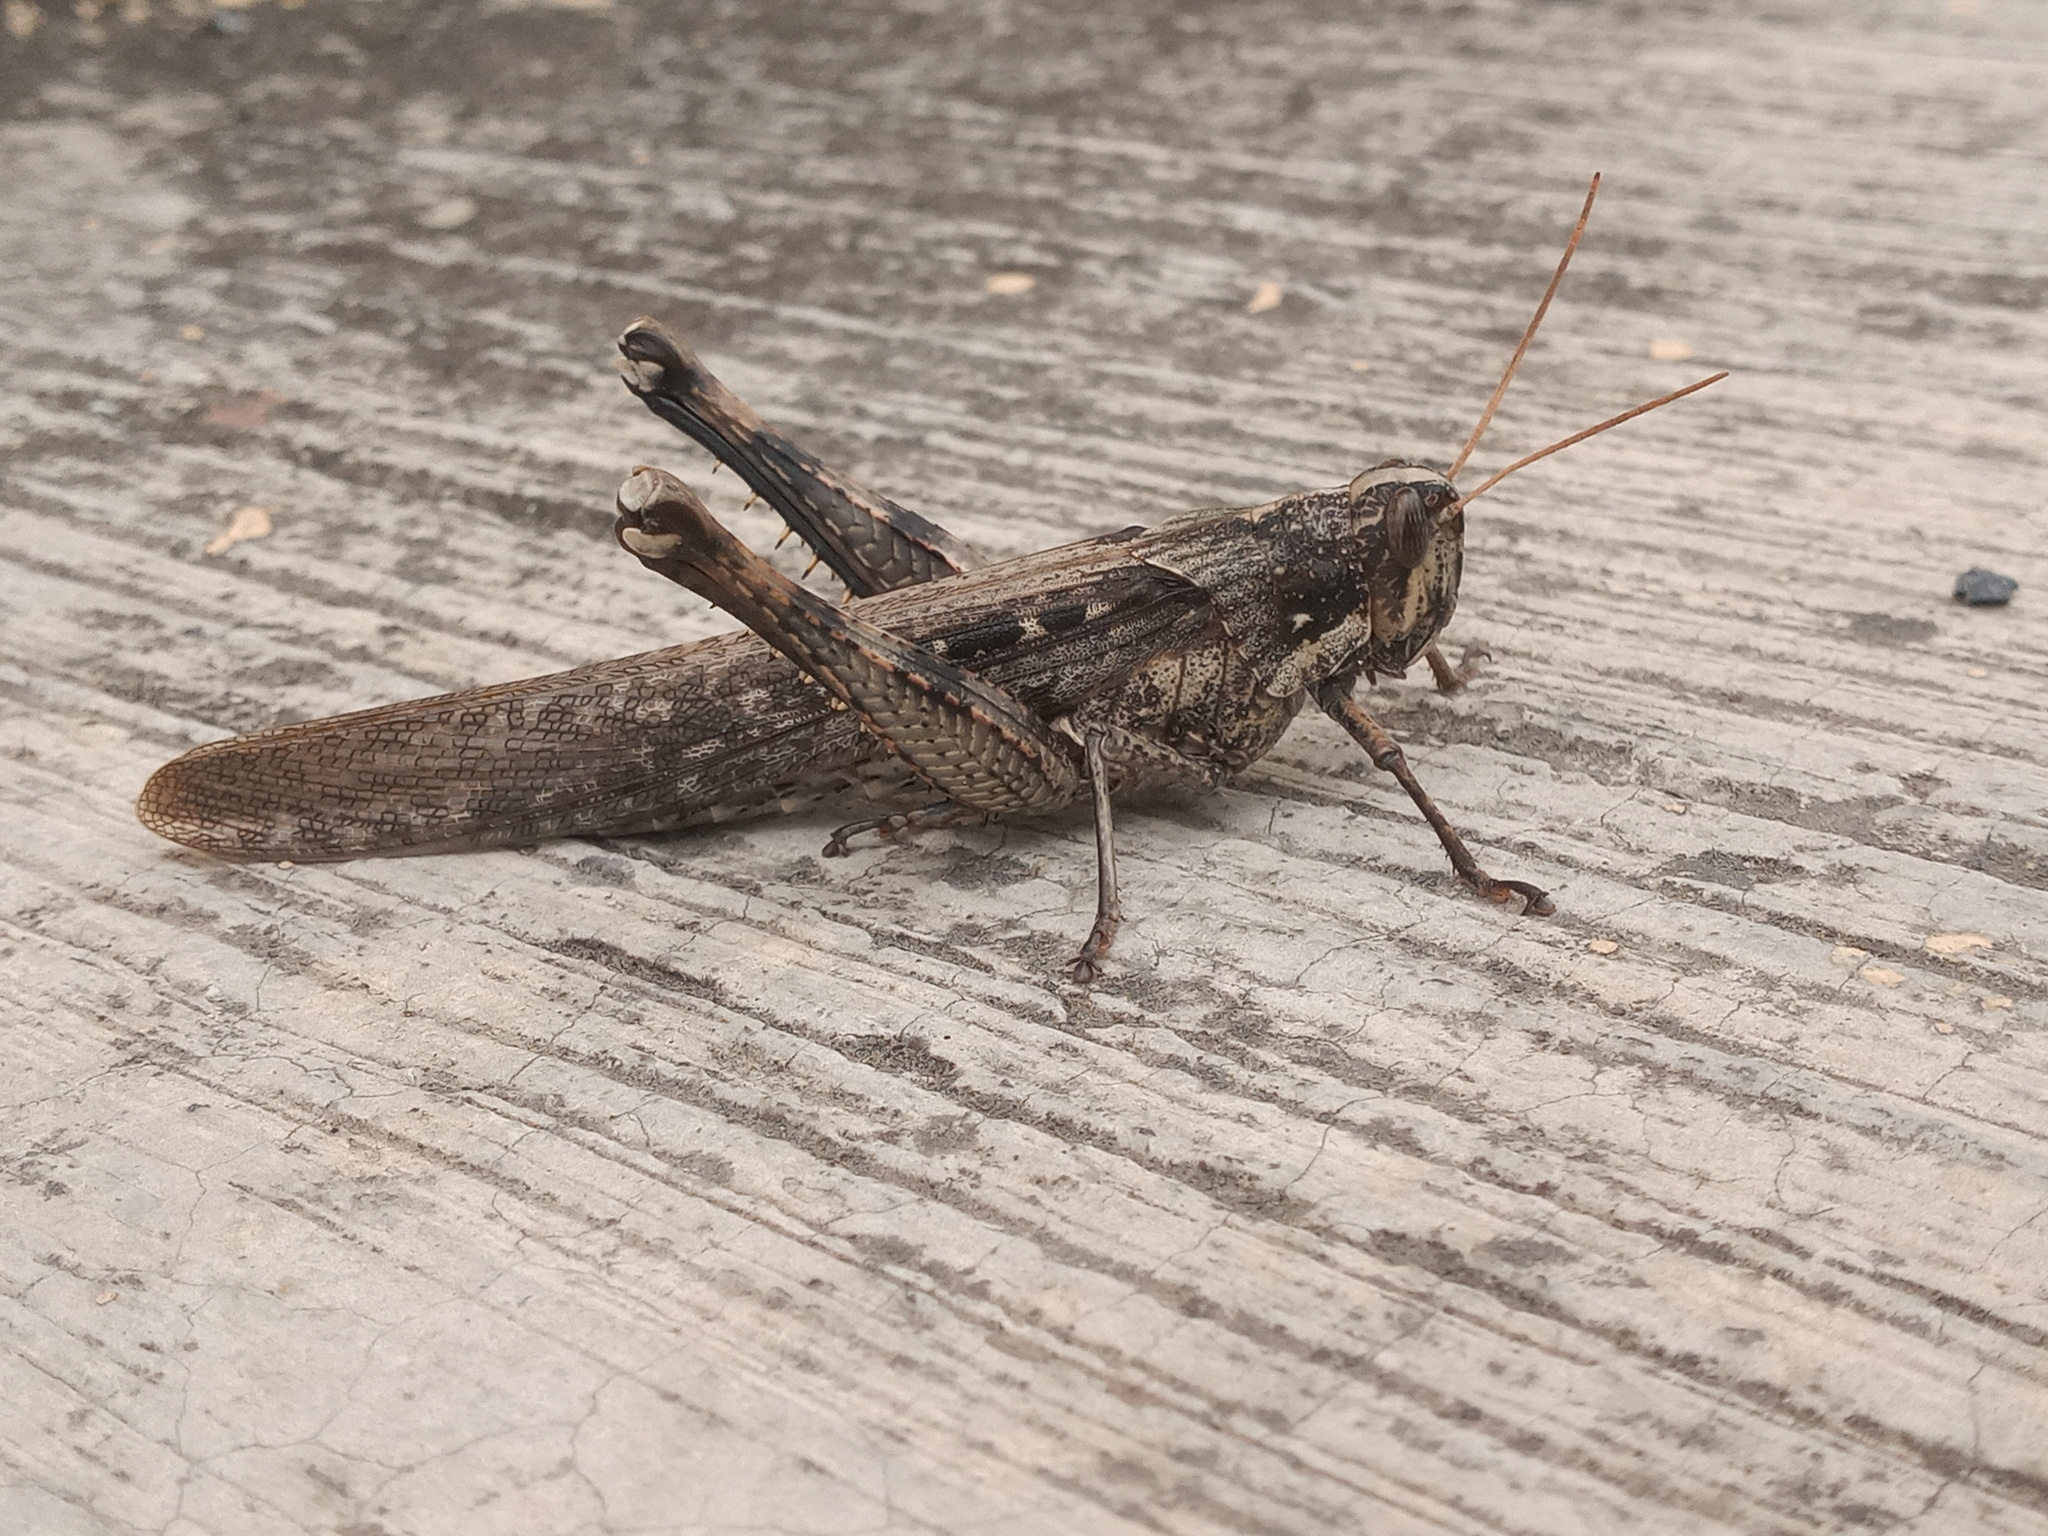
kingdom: Animalia
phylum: Arthropoda
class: Insecta
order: Orthoptera
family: Acrididae
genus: Schistocerca
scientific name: Schistocerca nitens
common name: Vagrant grasshopper
